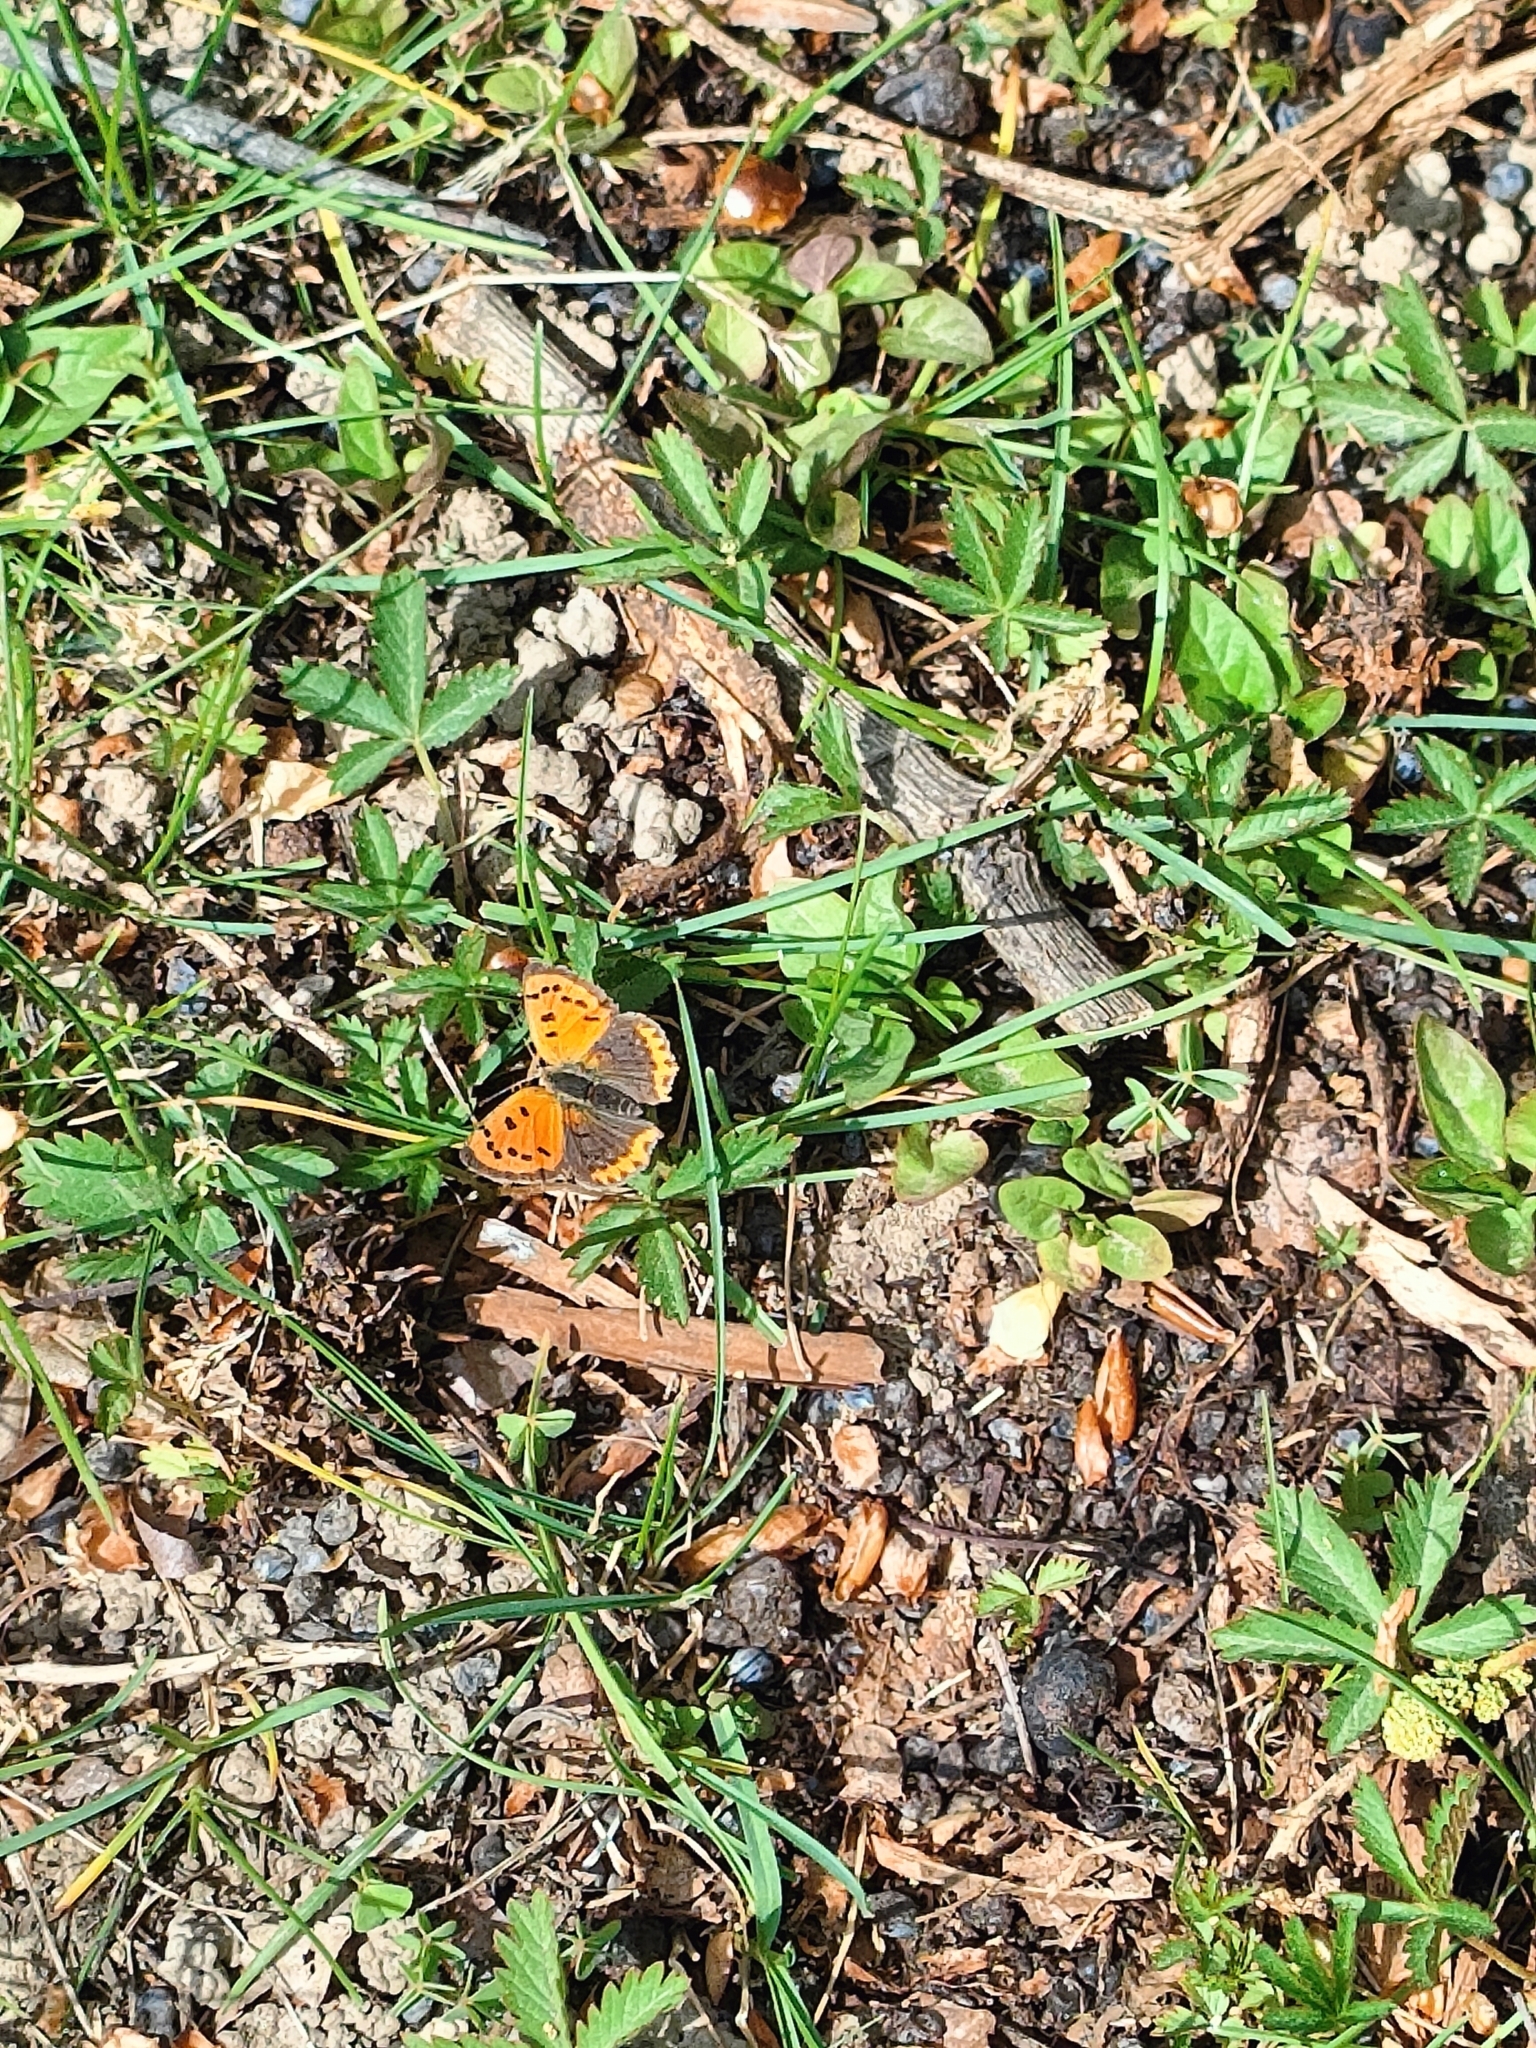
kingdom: Animalia
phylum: Arthropoda
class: Insecta
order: Lepidoptera
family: Lycaenidae
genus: Lycaena
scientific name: Lycaena phlaeas
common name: Small copper
